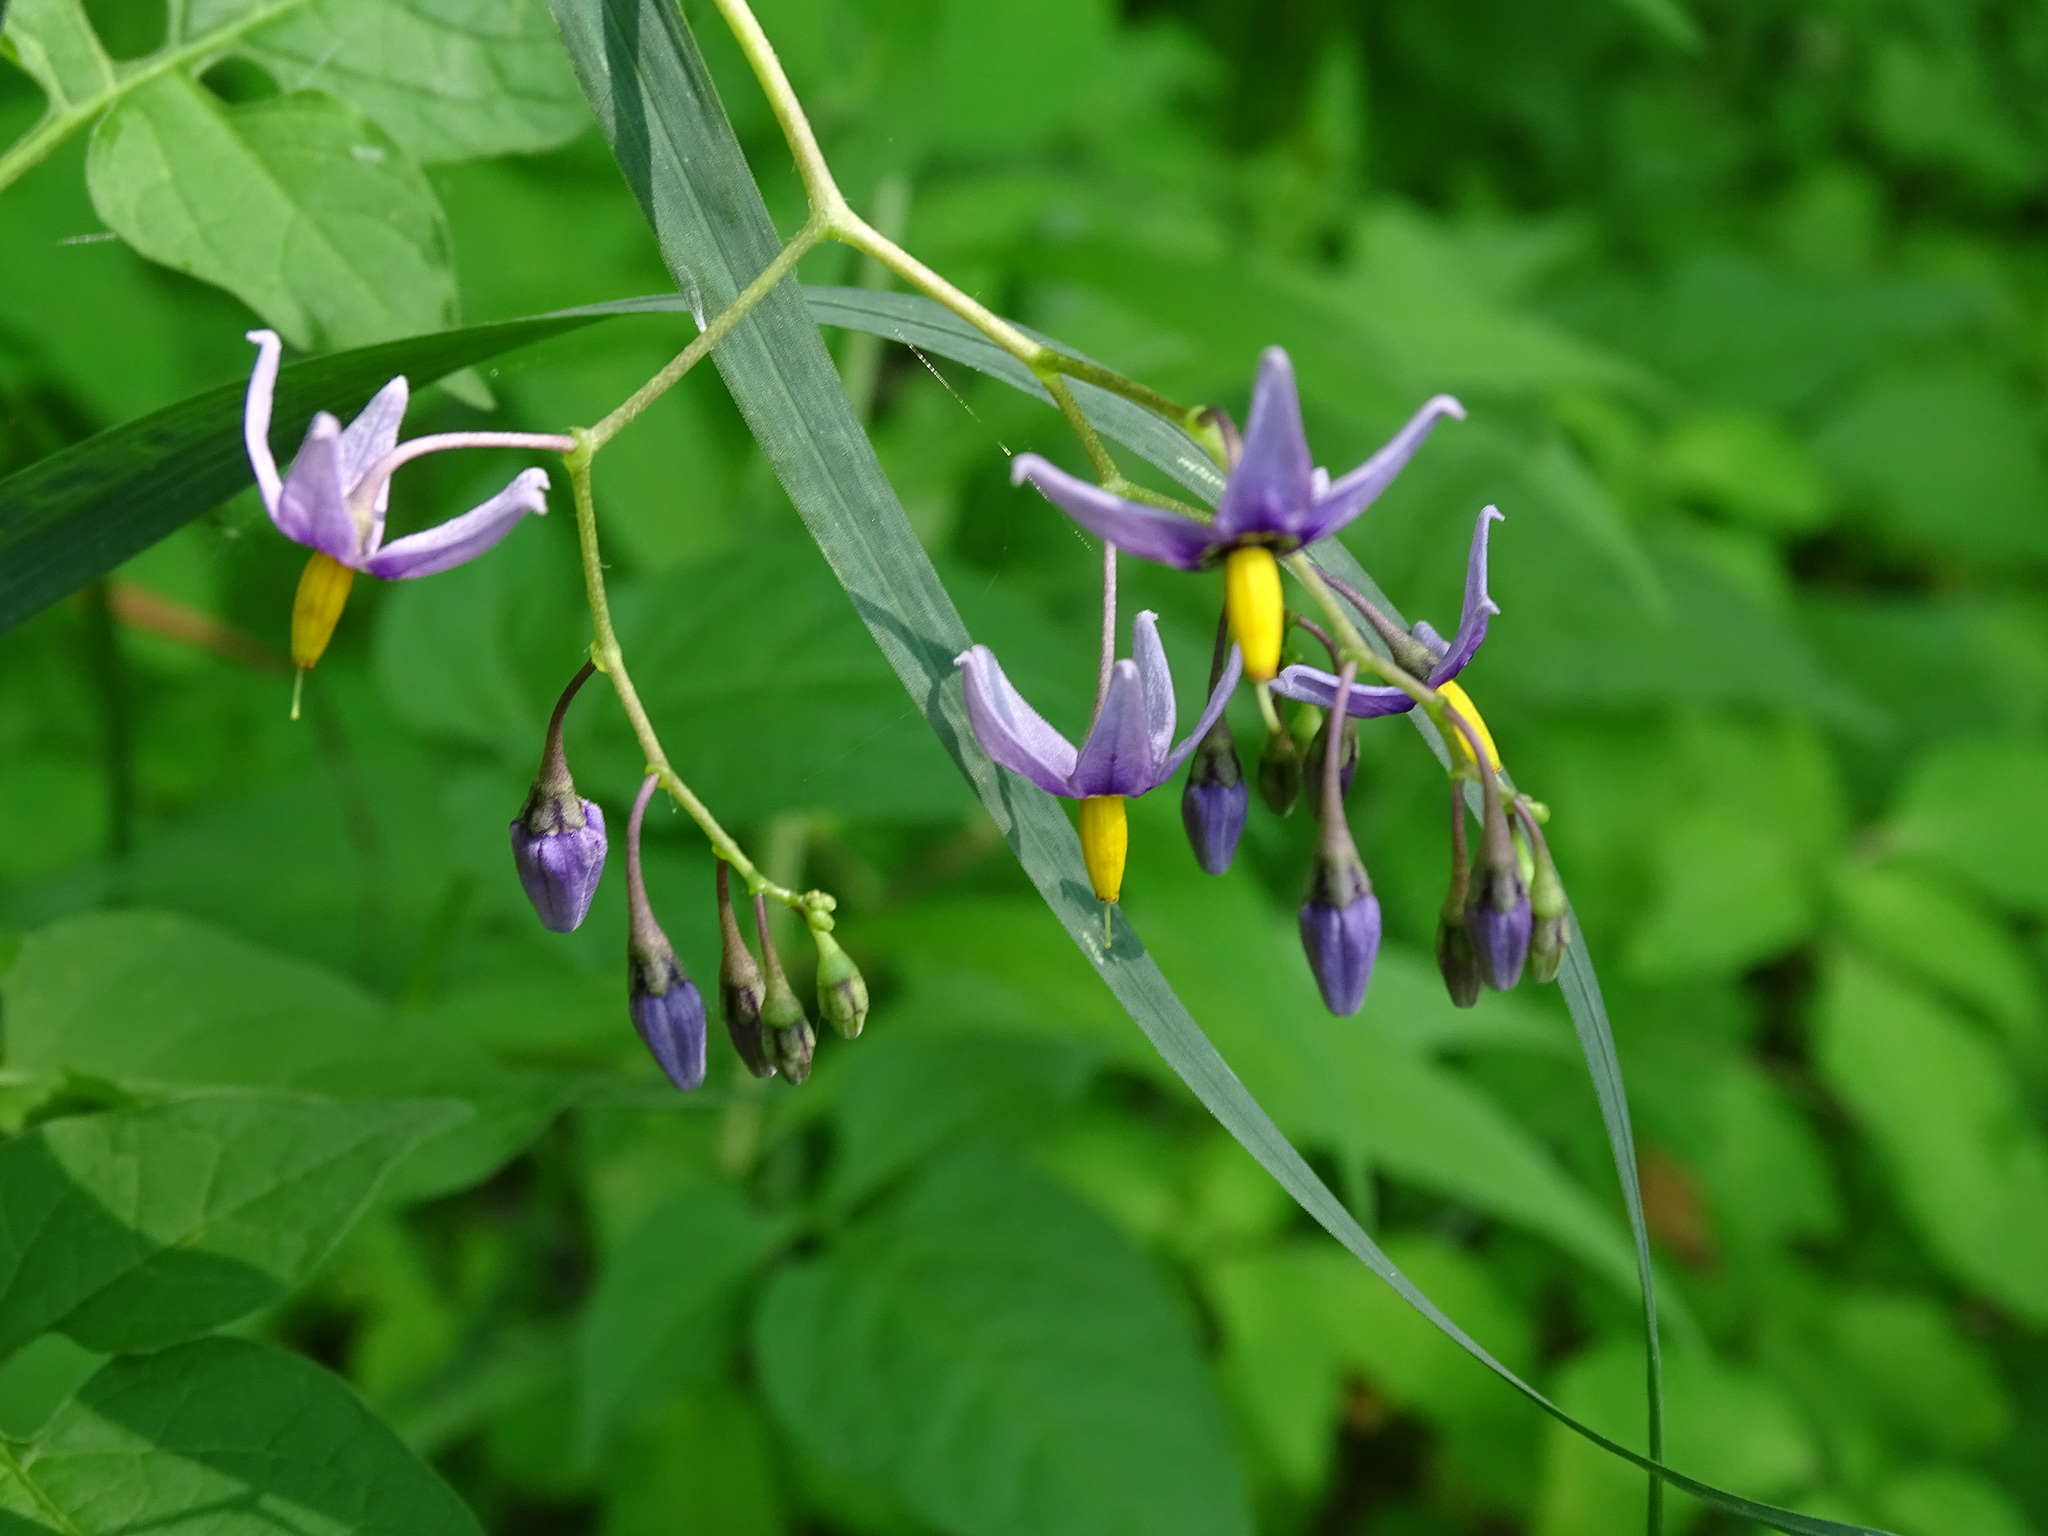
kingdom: Plantae
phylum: Tracheophyta
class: Magnoliopsida
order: Solanales
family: Solanaceae
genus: Solanum
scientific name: Solanum dulcamara
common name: Climbing nightshade
